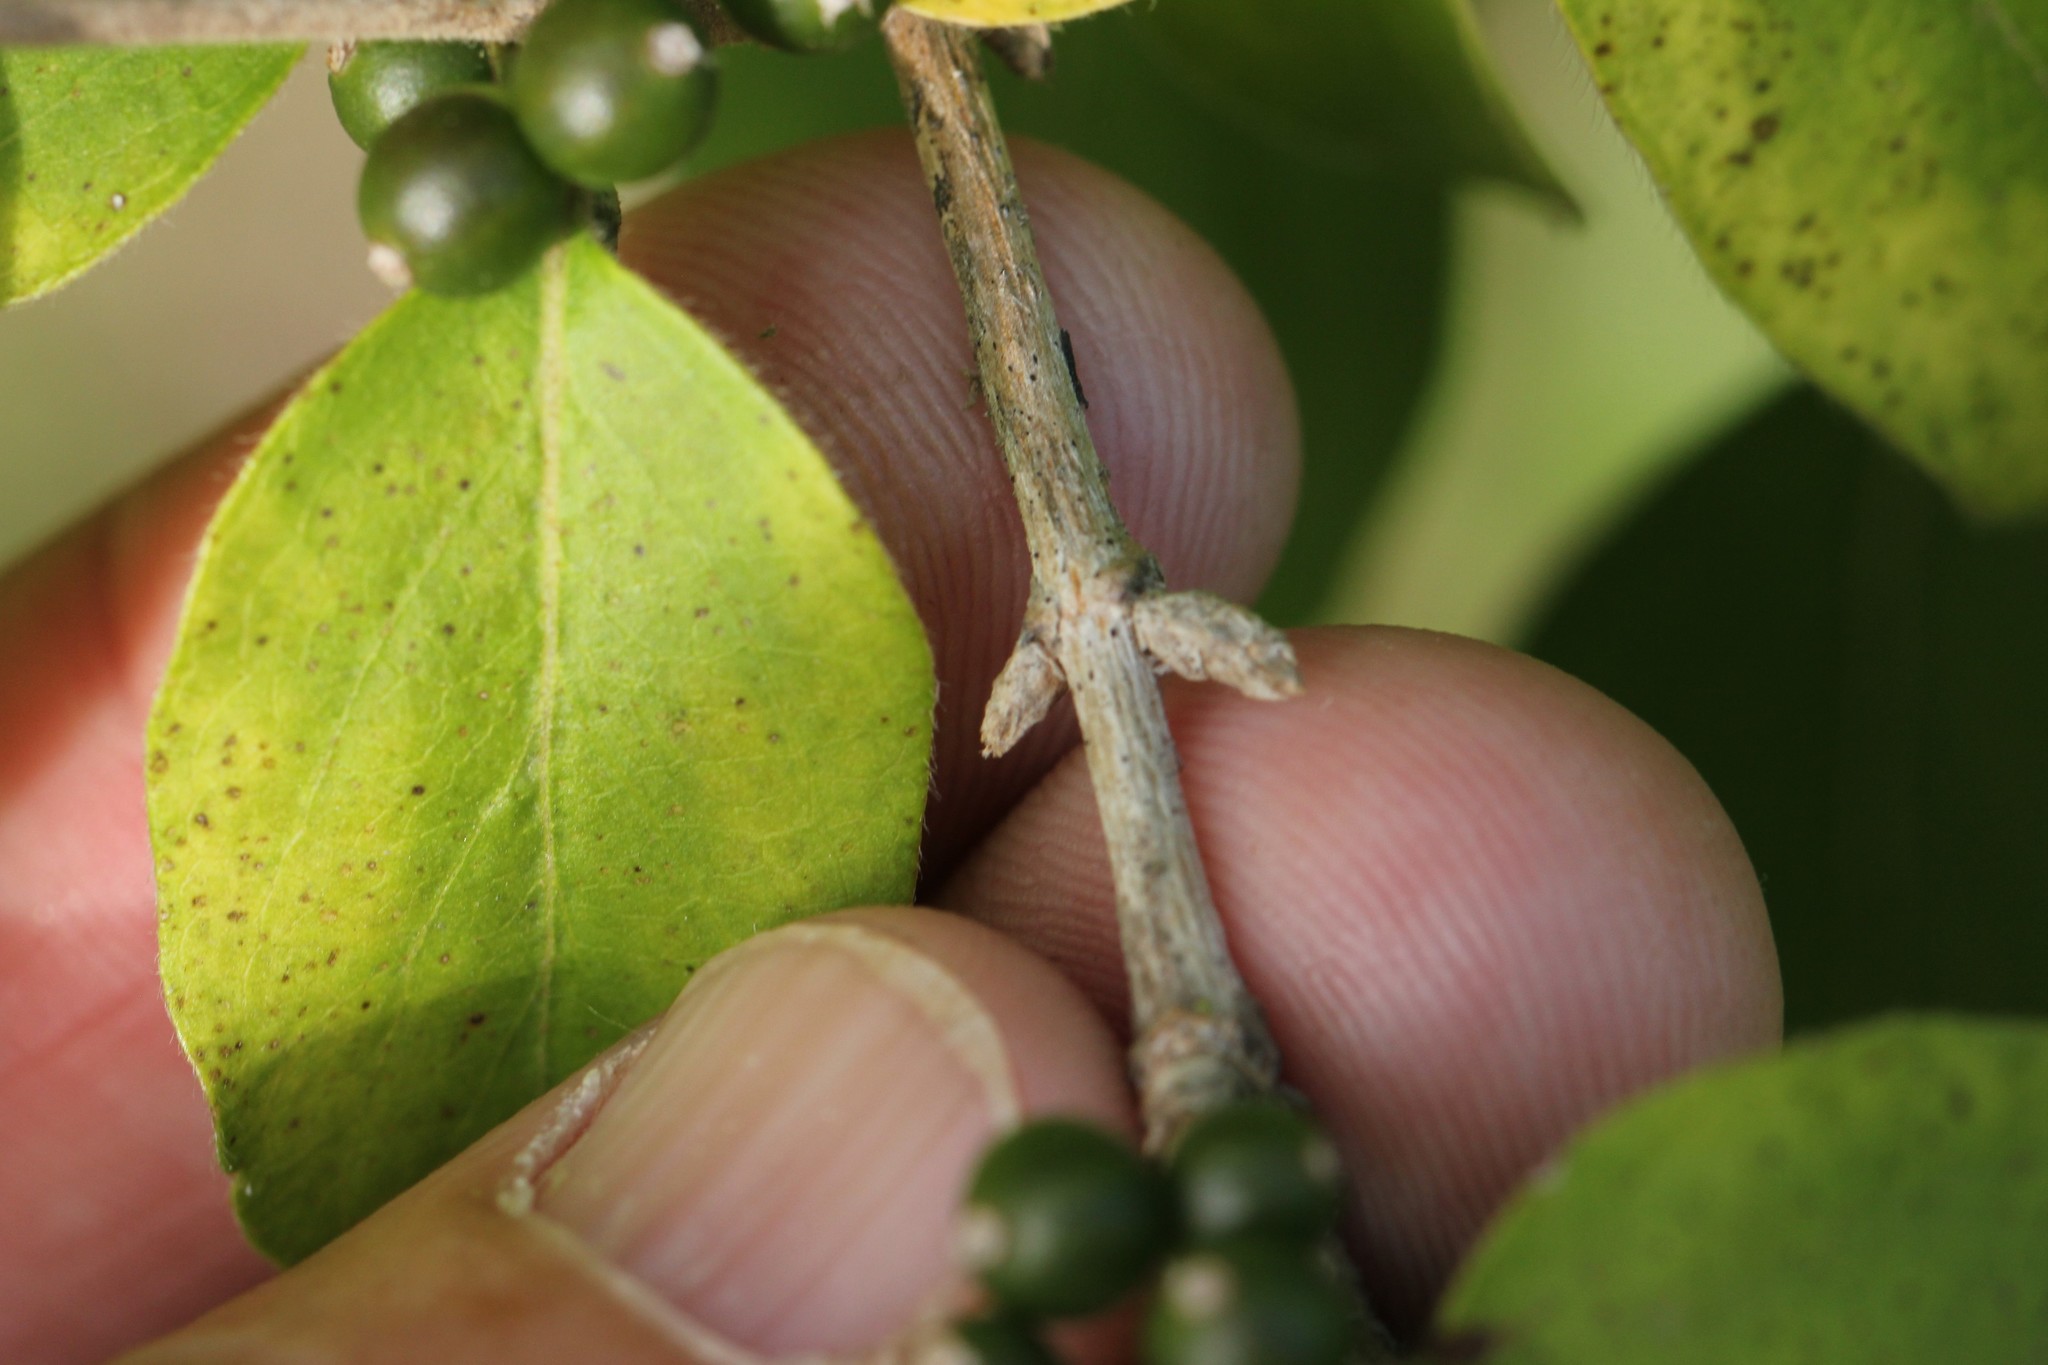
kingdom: Plantae
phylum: Tracheophyta
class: Magnoliopsida
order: Dipsacales
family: Caprifoliaceae
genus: Lonicera
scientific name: Lonicera maackii
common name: Amur honeysuckle
